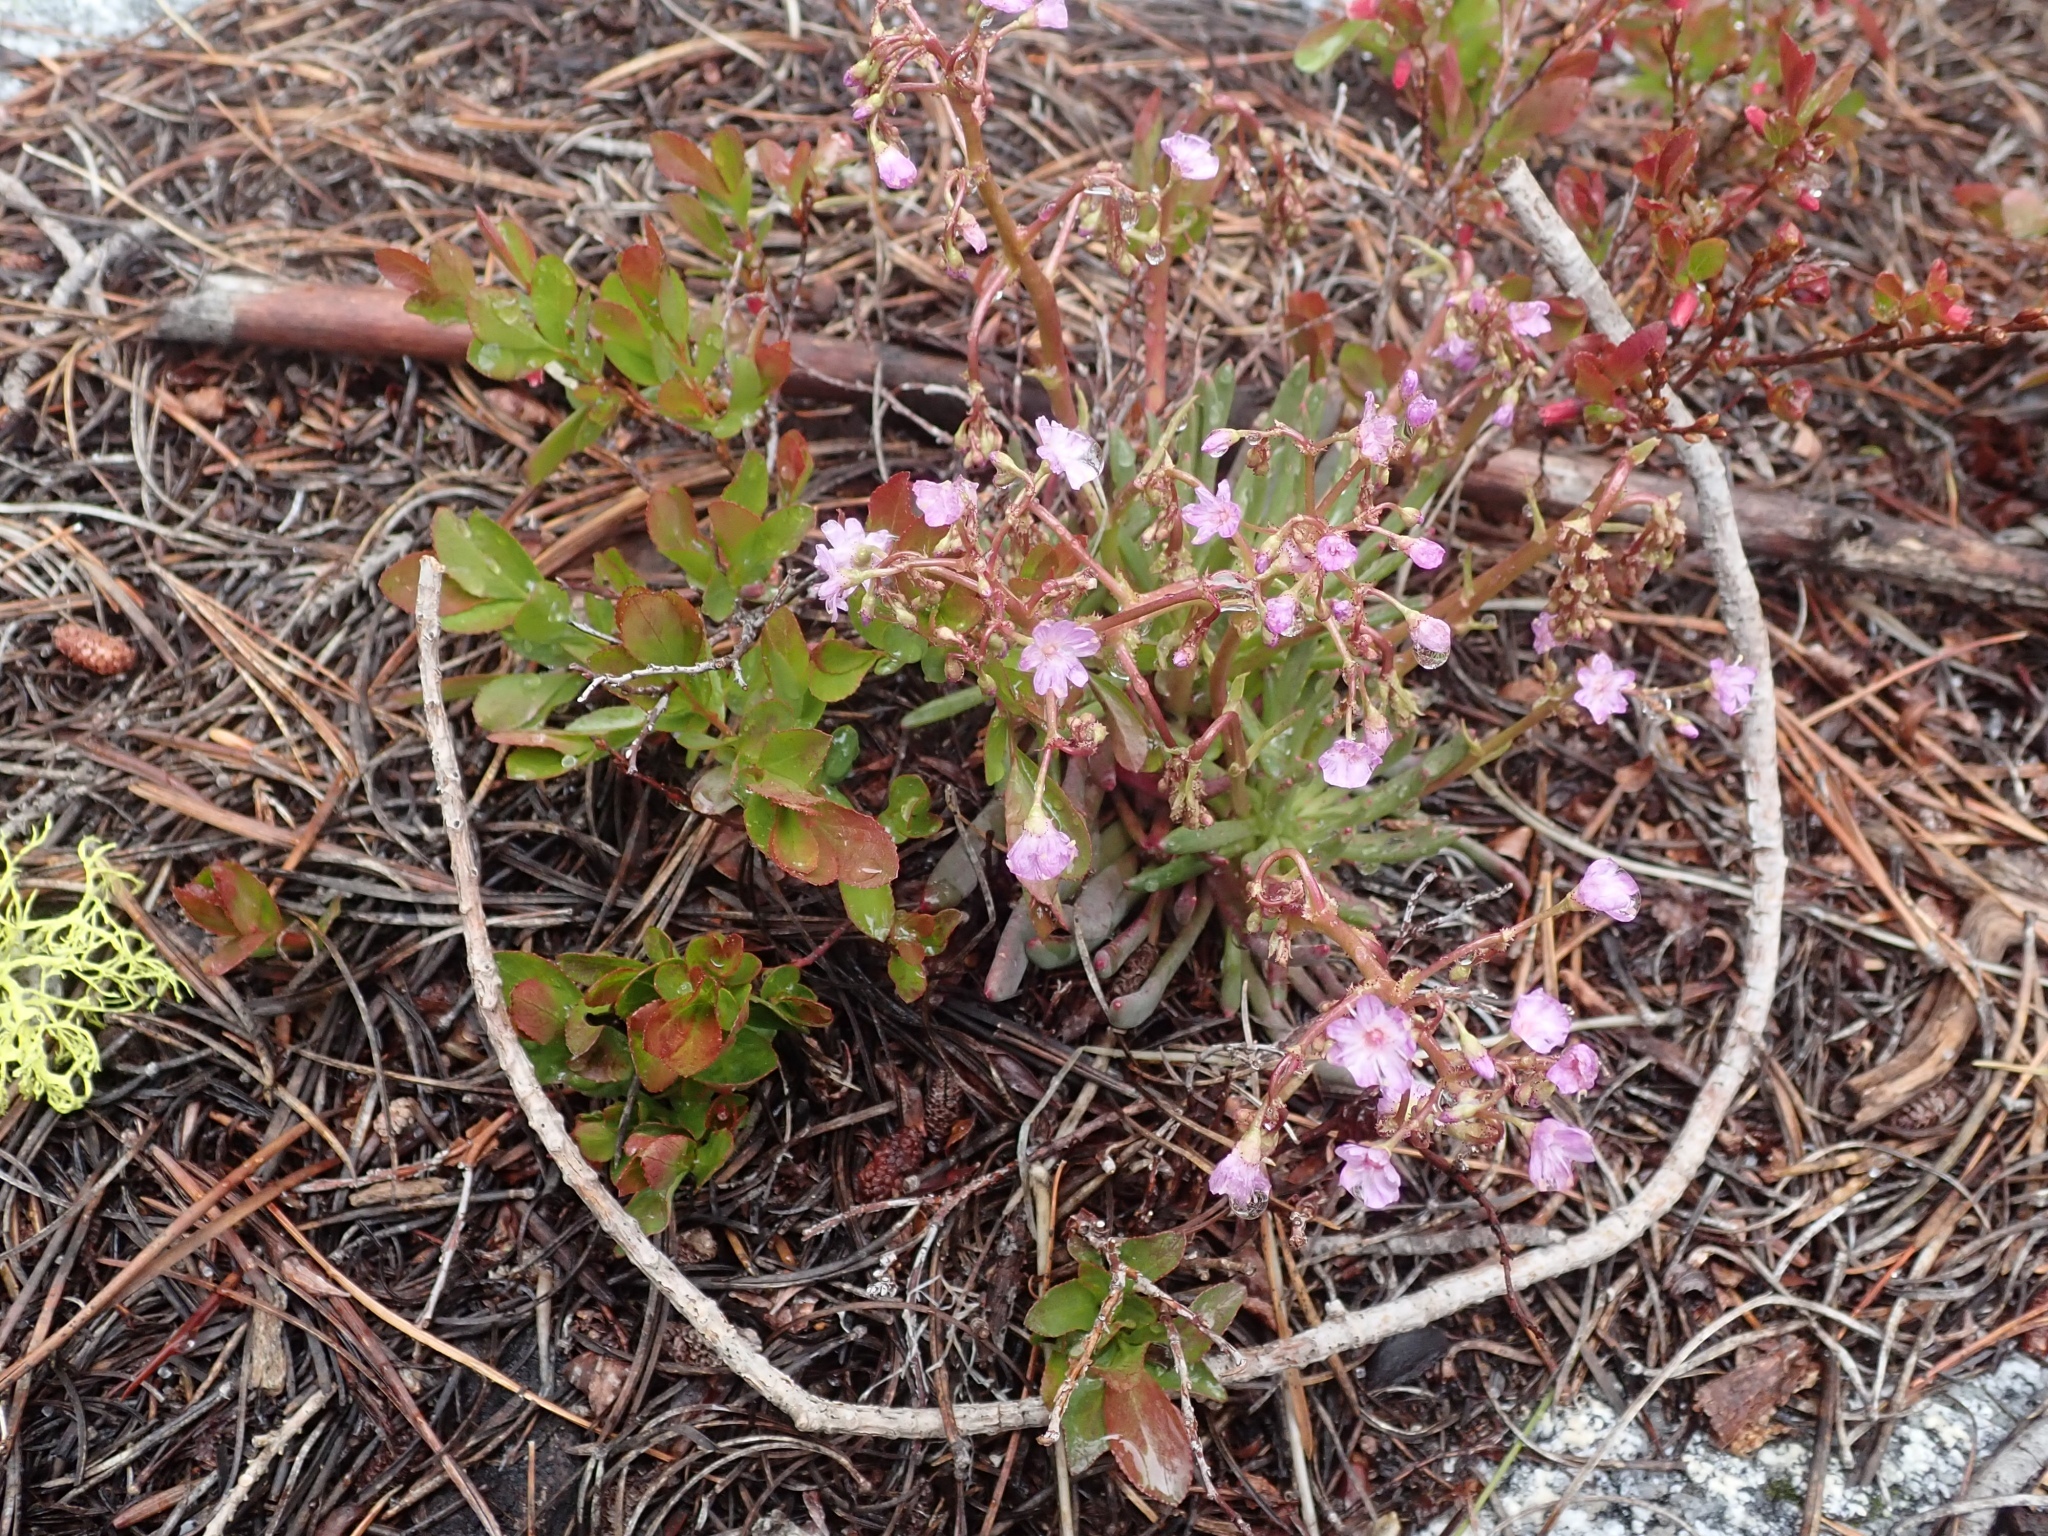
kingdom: Plantae
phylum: Tracheophyta
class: Magnoliopsida
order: Caryophyllales
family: Montiaceae
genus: Lewisia
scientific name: Lewisia leeana
